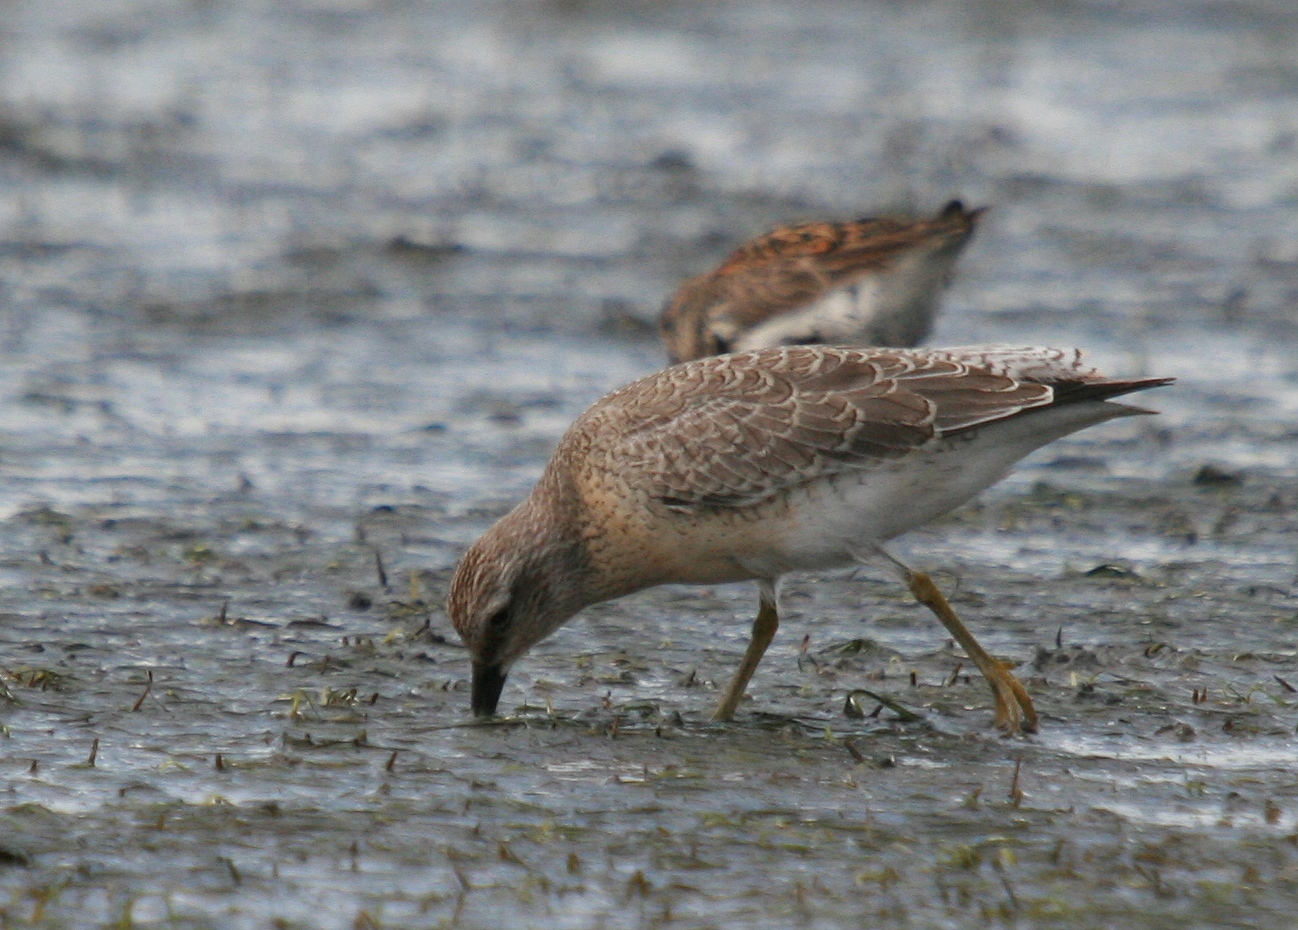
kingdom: Animalia
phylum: Chordata
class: Aves
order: Charadriiformes
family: Scolopacidae
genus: Calidris
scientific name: Calidris canutus
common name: Red knot
